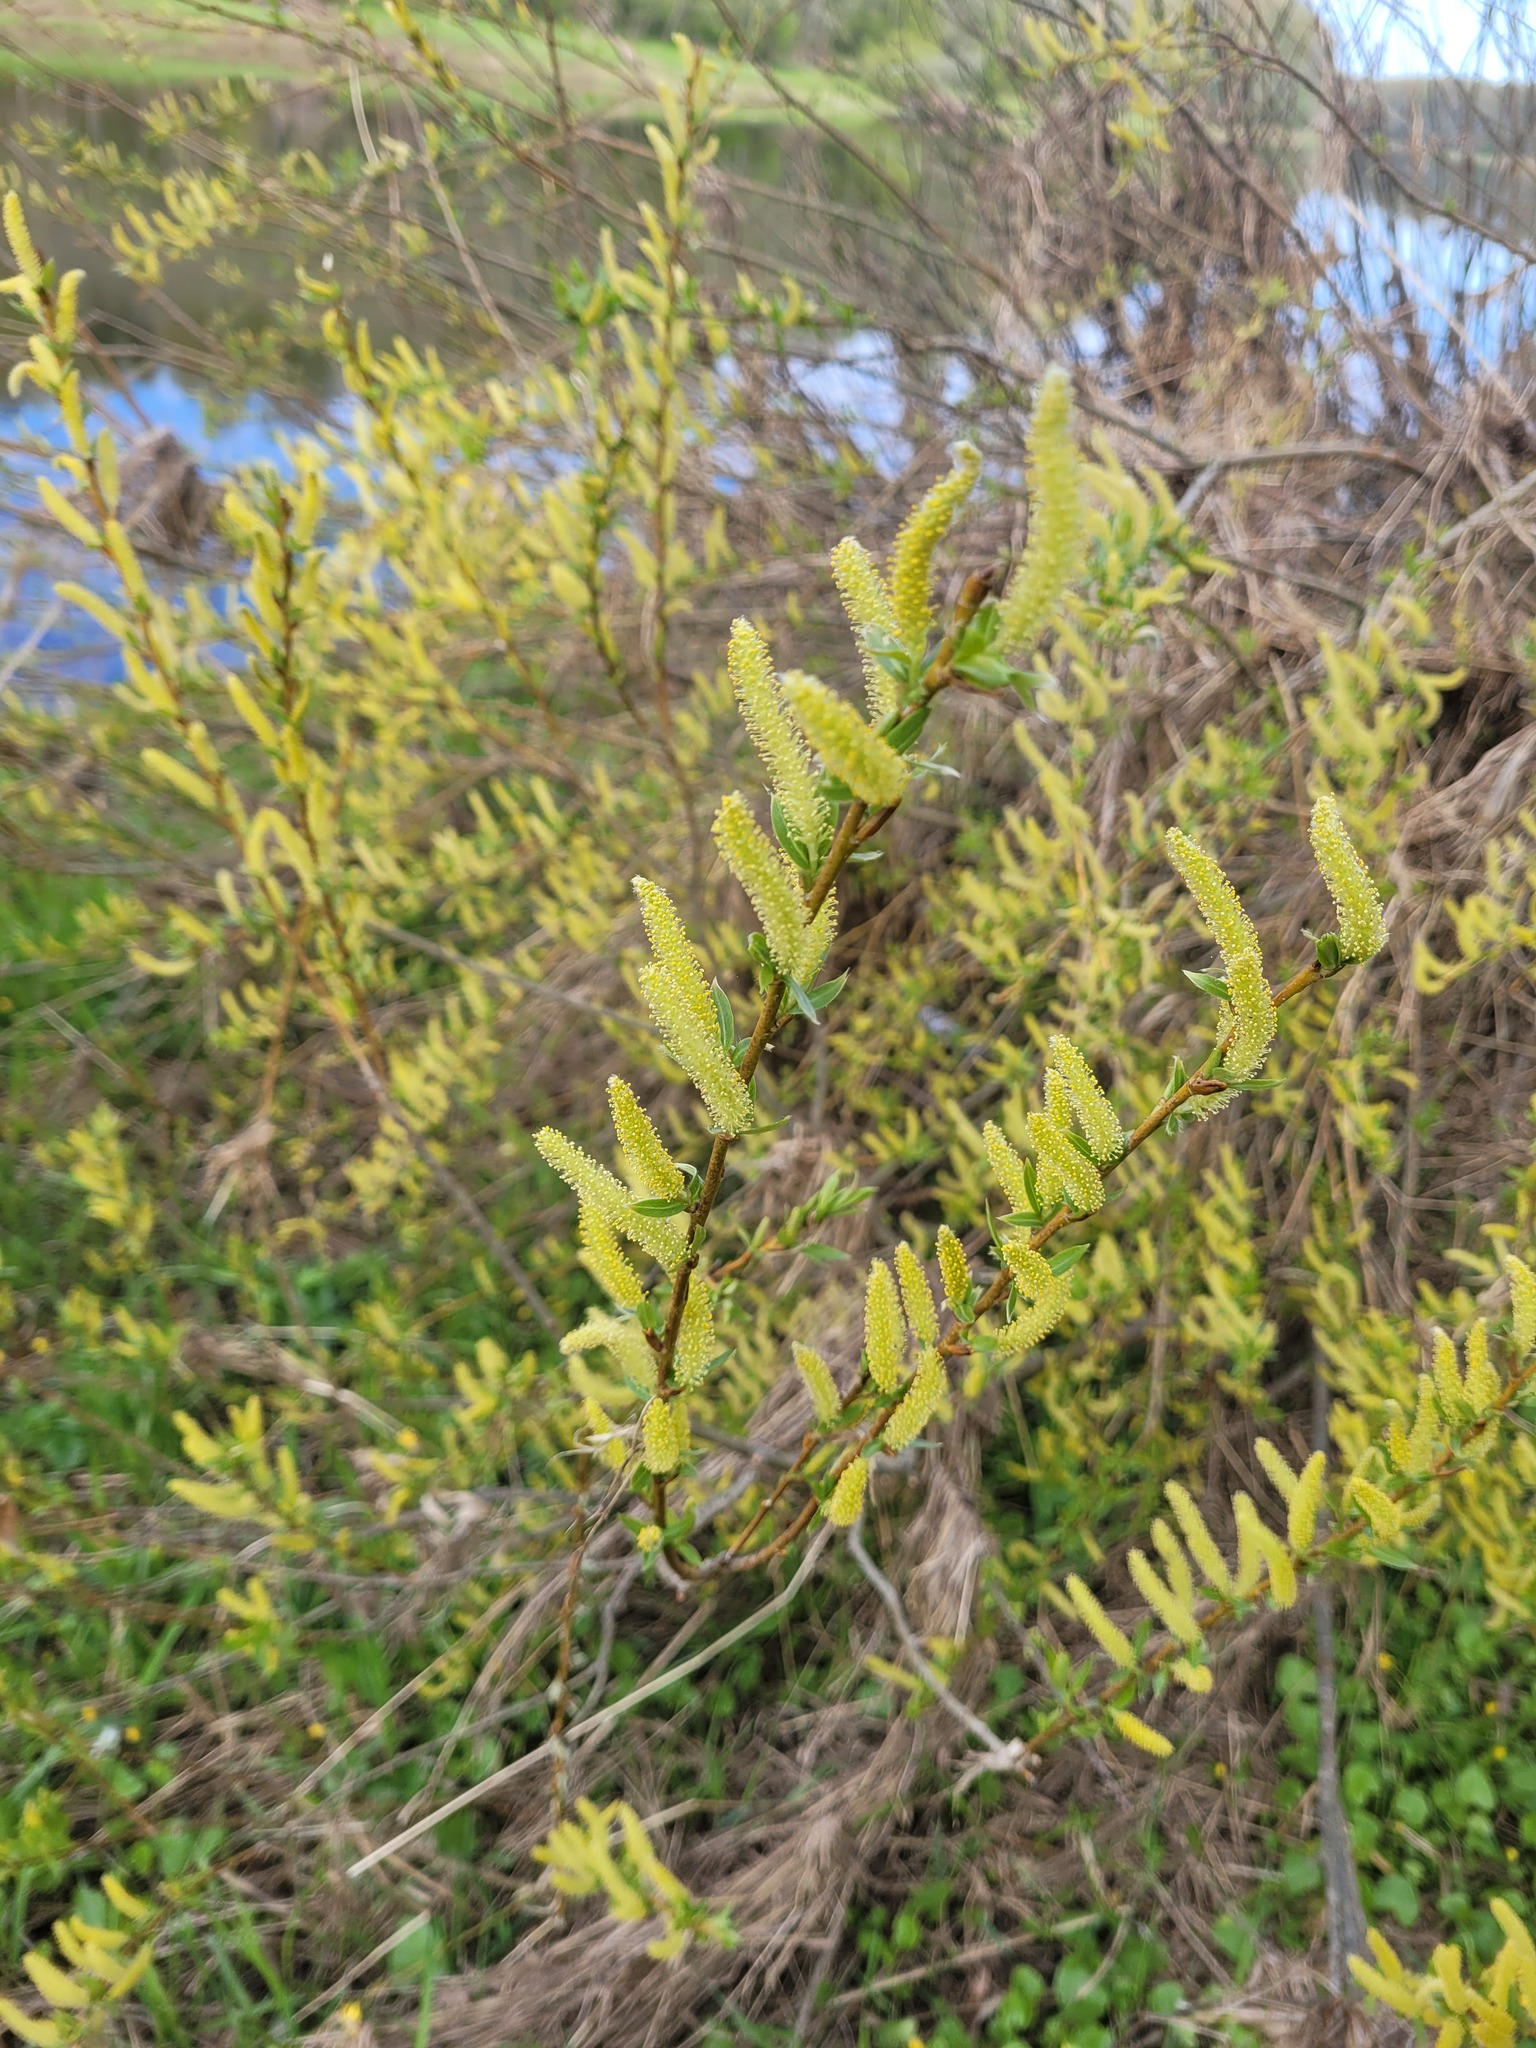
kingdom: Plantae
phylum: Tracheophyta
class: Magnoliopsida
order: Malpighiales
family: Salicaceae
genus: Salix
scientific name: Salix triandra
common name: Almond willow
